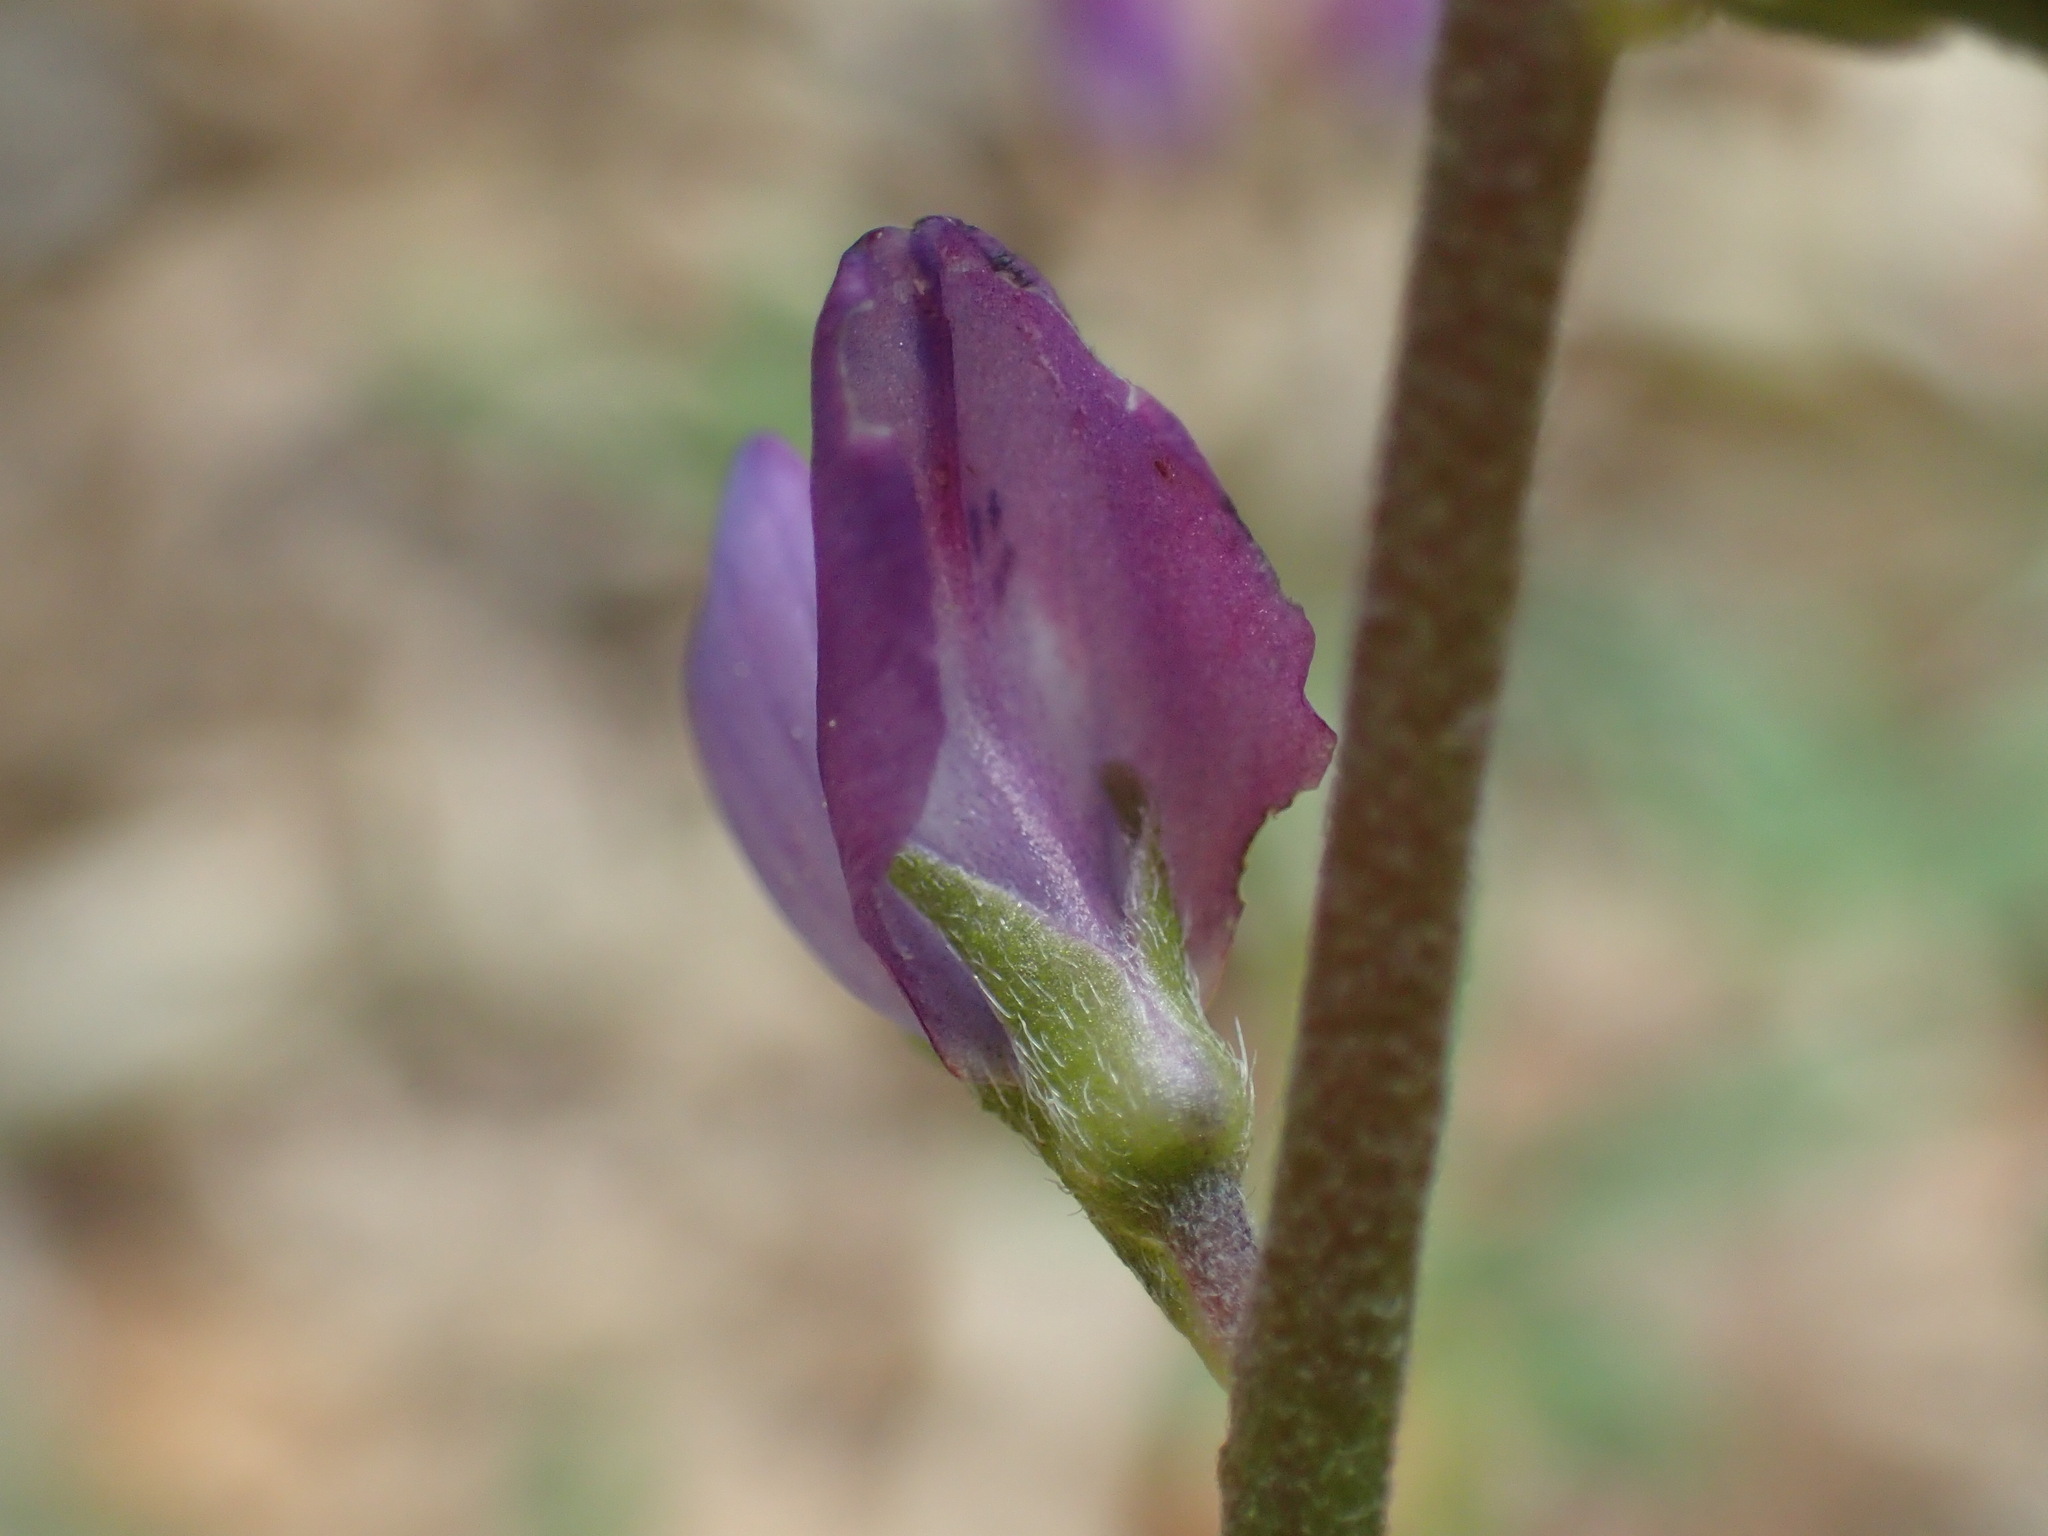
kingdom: Plantae
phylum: Tracheophyta
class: Magnoliopsida
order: Fabales
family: Fabaceae
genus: Lupinus
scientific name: Lupinus truncatus
